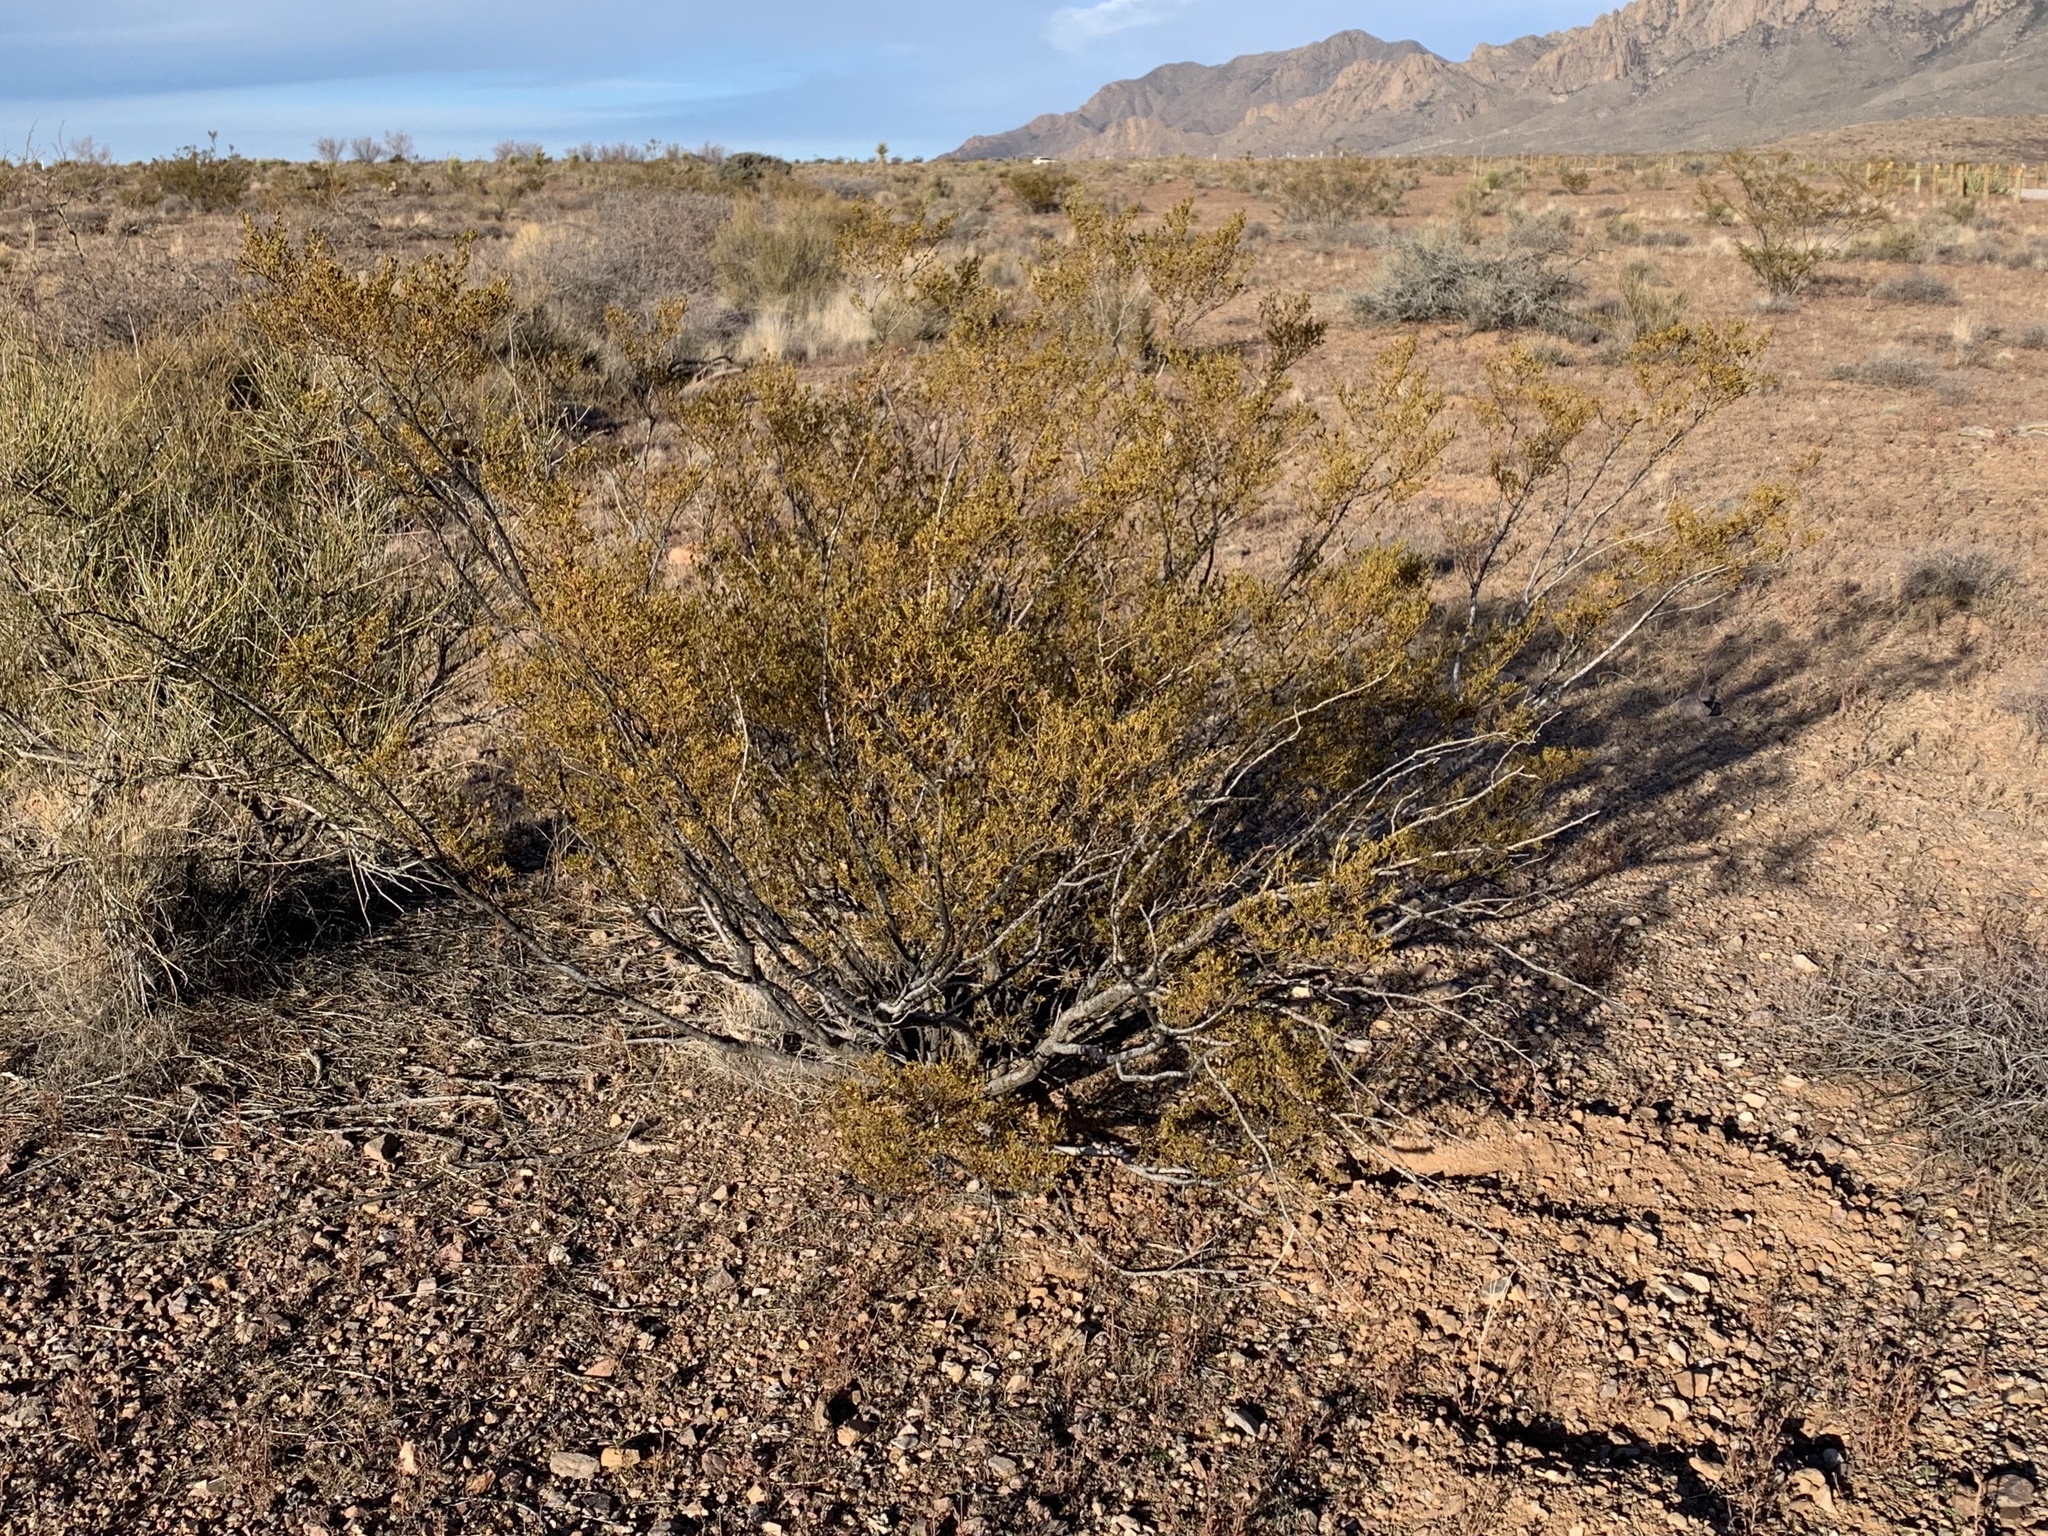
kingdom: Plantae
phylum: Tracheophyta
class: Magnoliopsida
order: Zygophyllales
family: Zygophyllaceae
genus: Larrea
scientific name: Larrea tridentata
